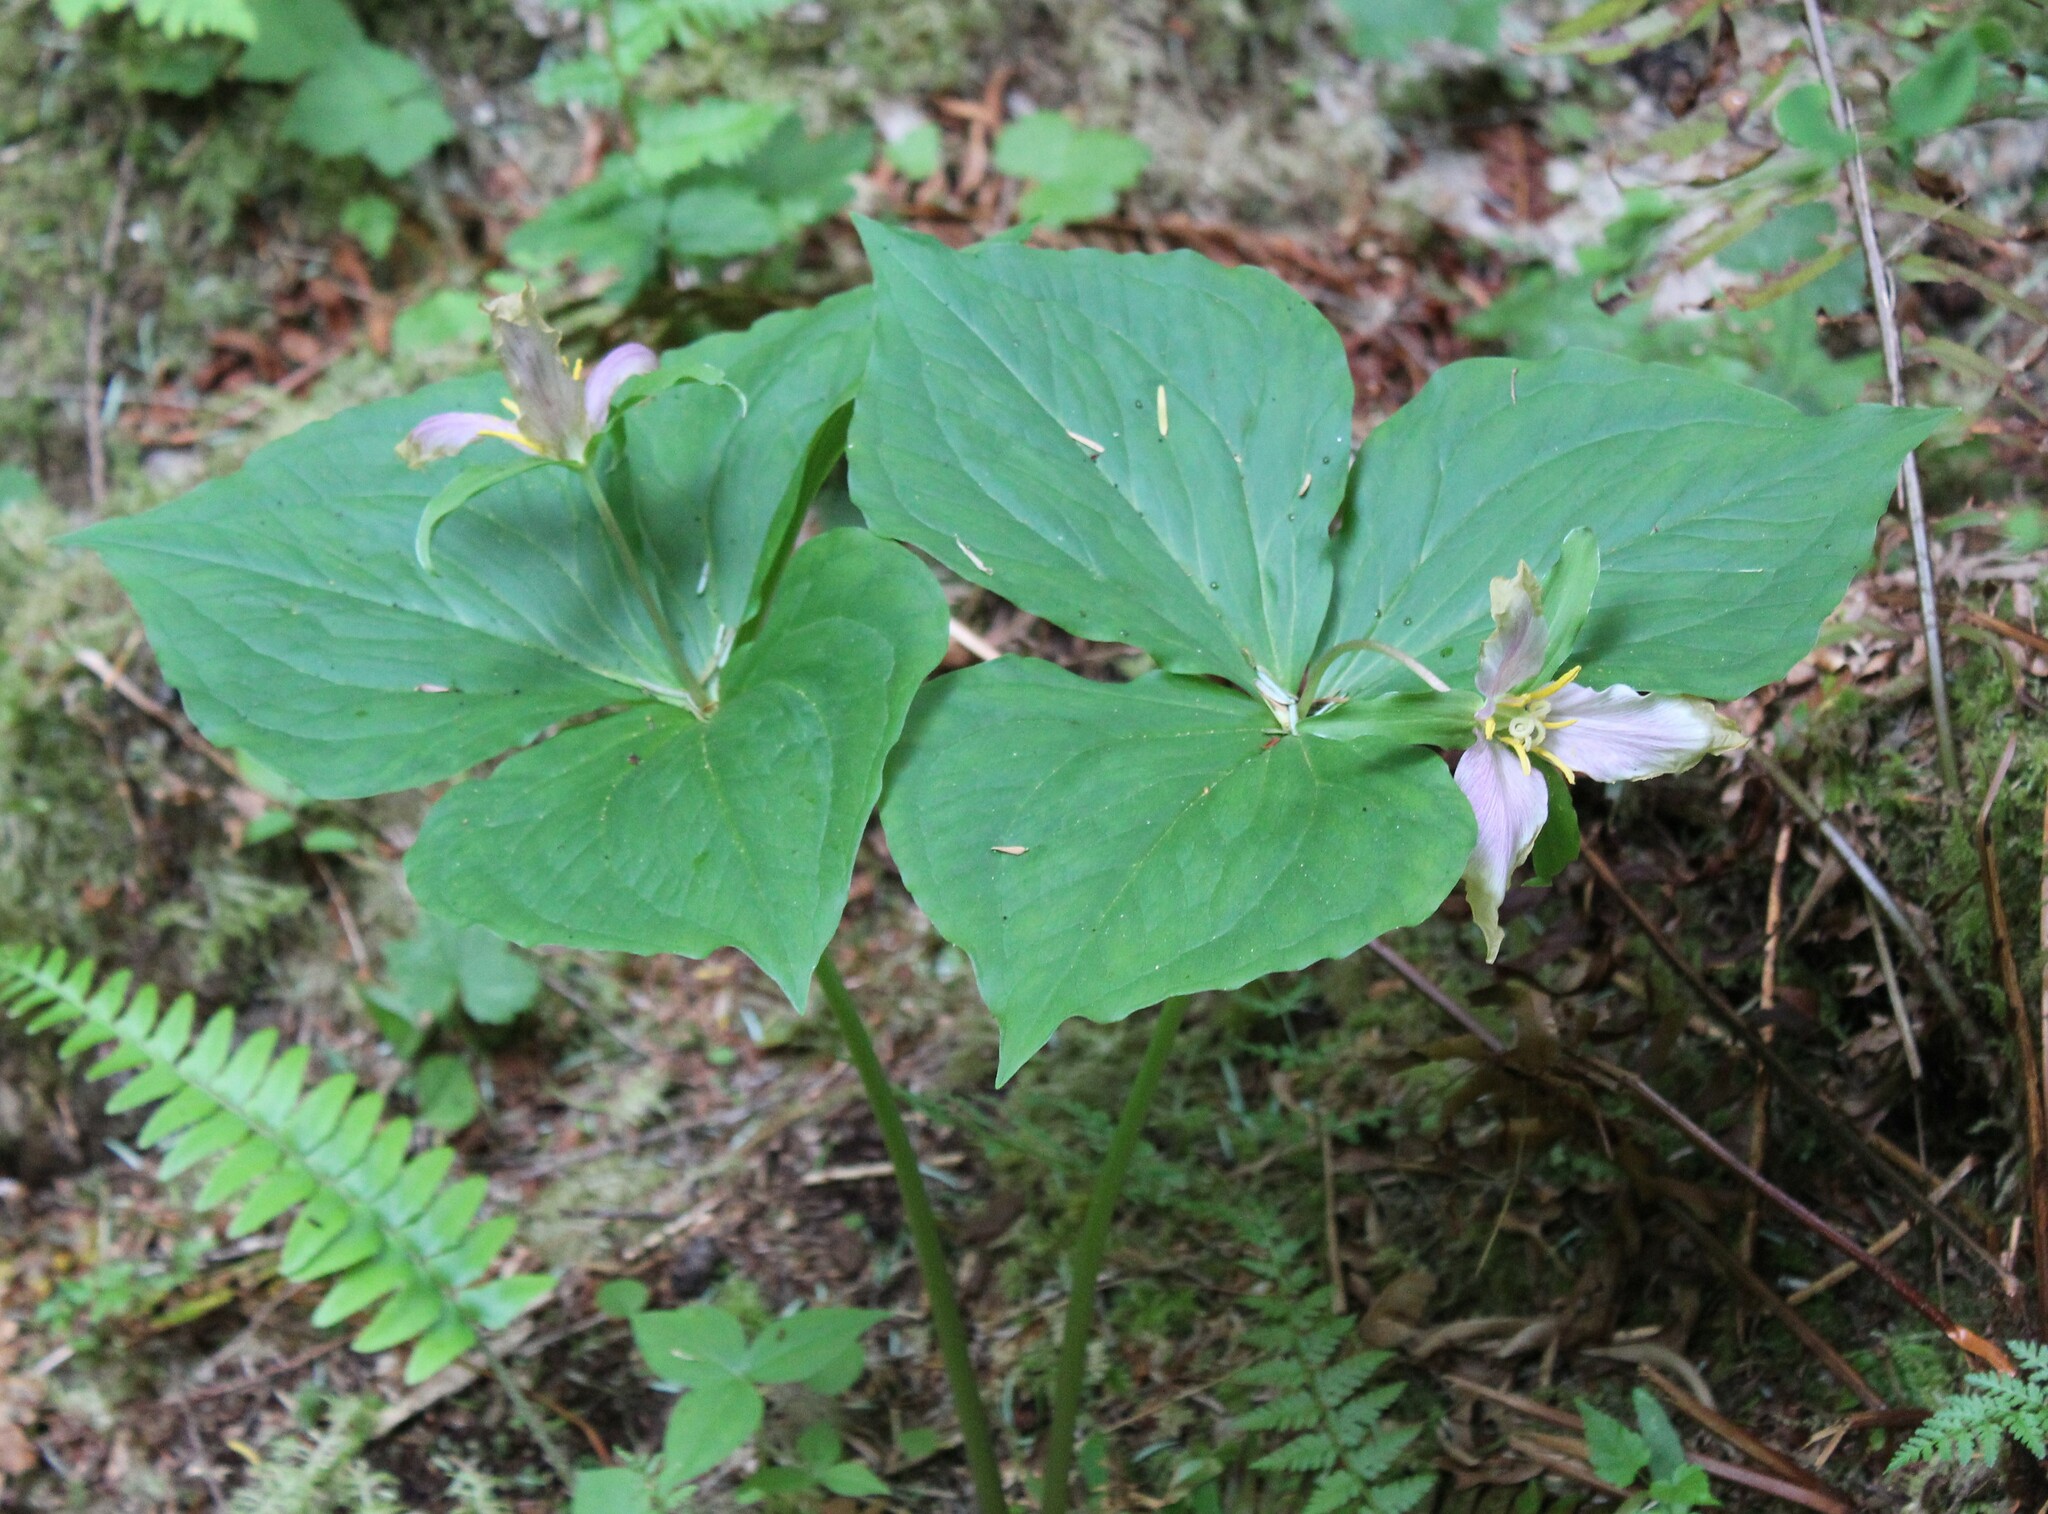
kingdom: Plantae
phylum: Tracheophyta
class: Liliopsida
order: Liliales
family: Melanthiaceae
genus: Trillium
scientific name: Trillium ovatum
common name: Pacific trillium
